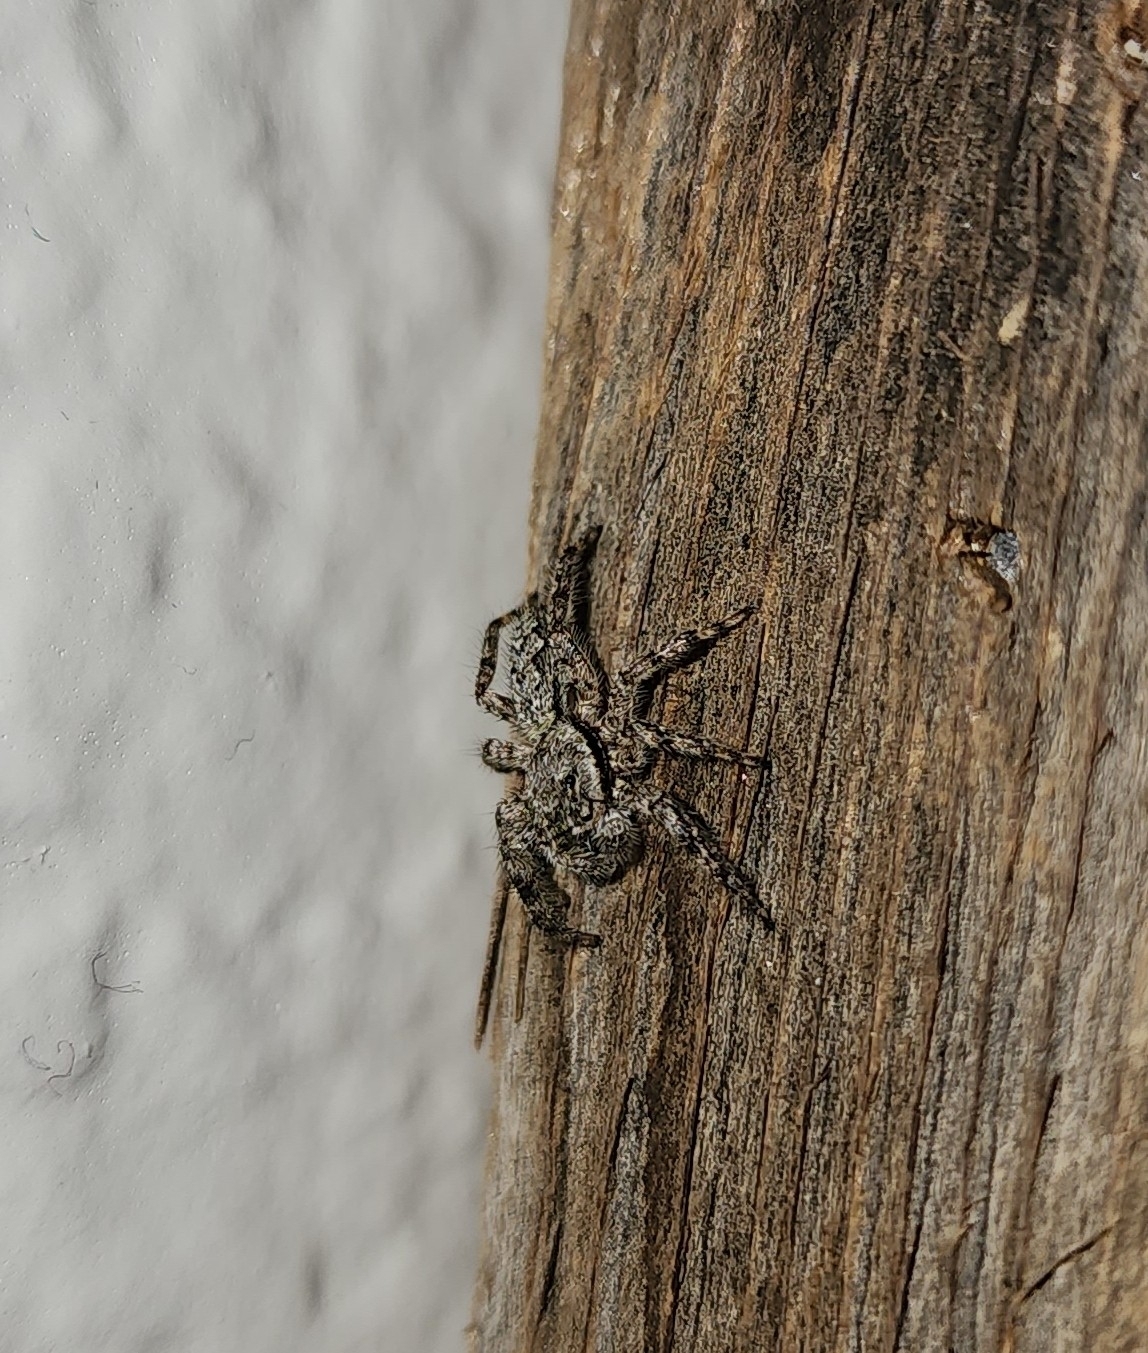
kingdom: Animalia
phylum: Arthropoda
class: Arachnida
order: Araneae
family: Salticidae
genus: Platycryptus
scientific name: Platycryptus undatus
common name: Tan jumping spider
